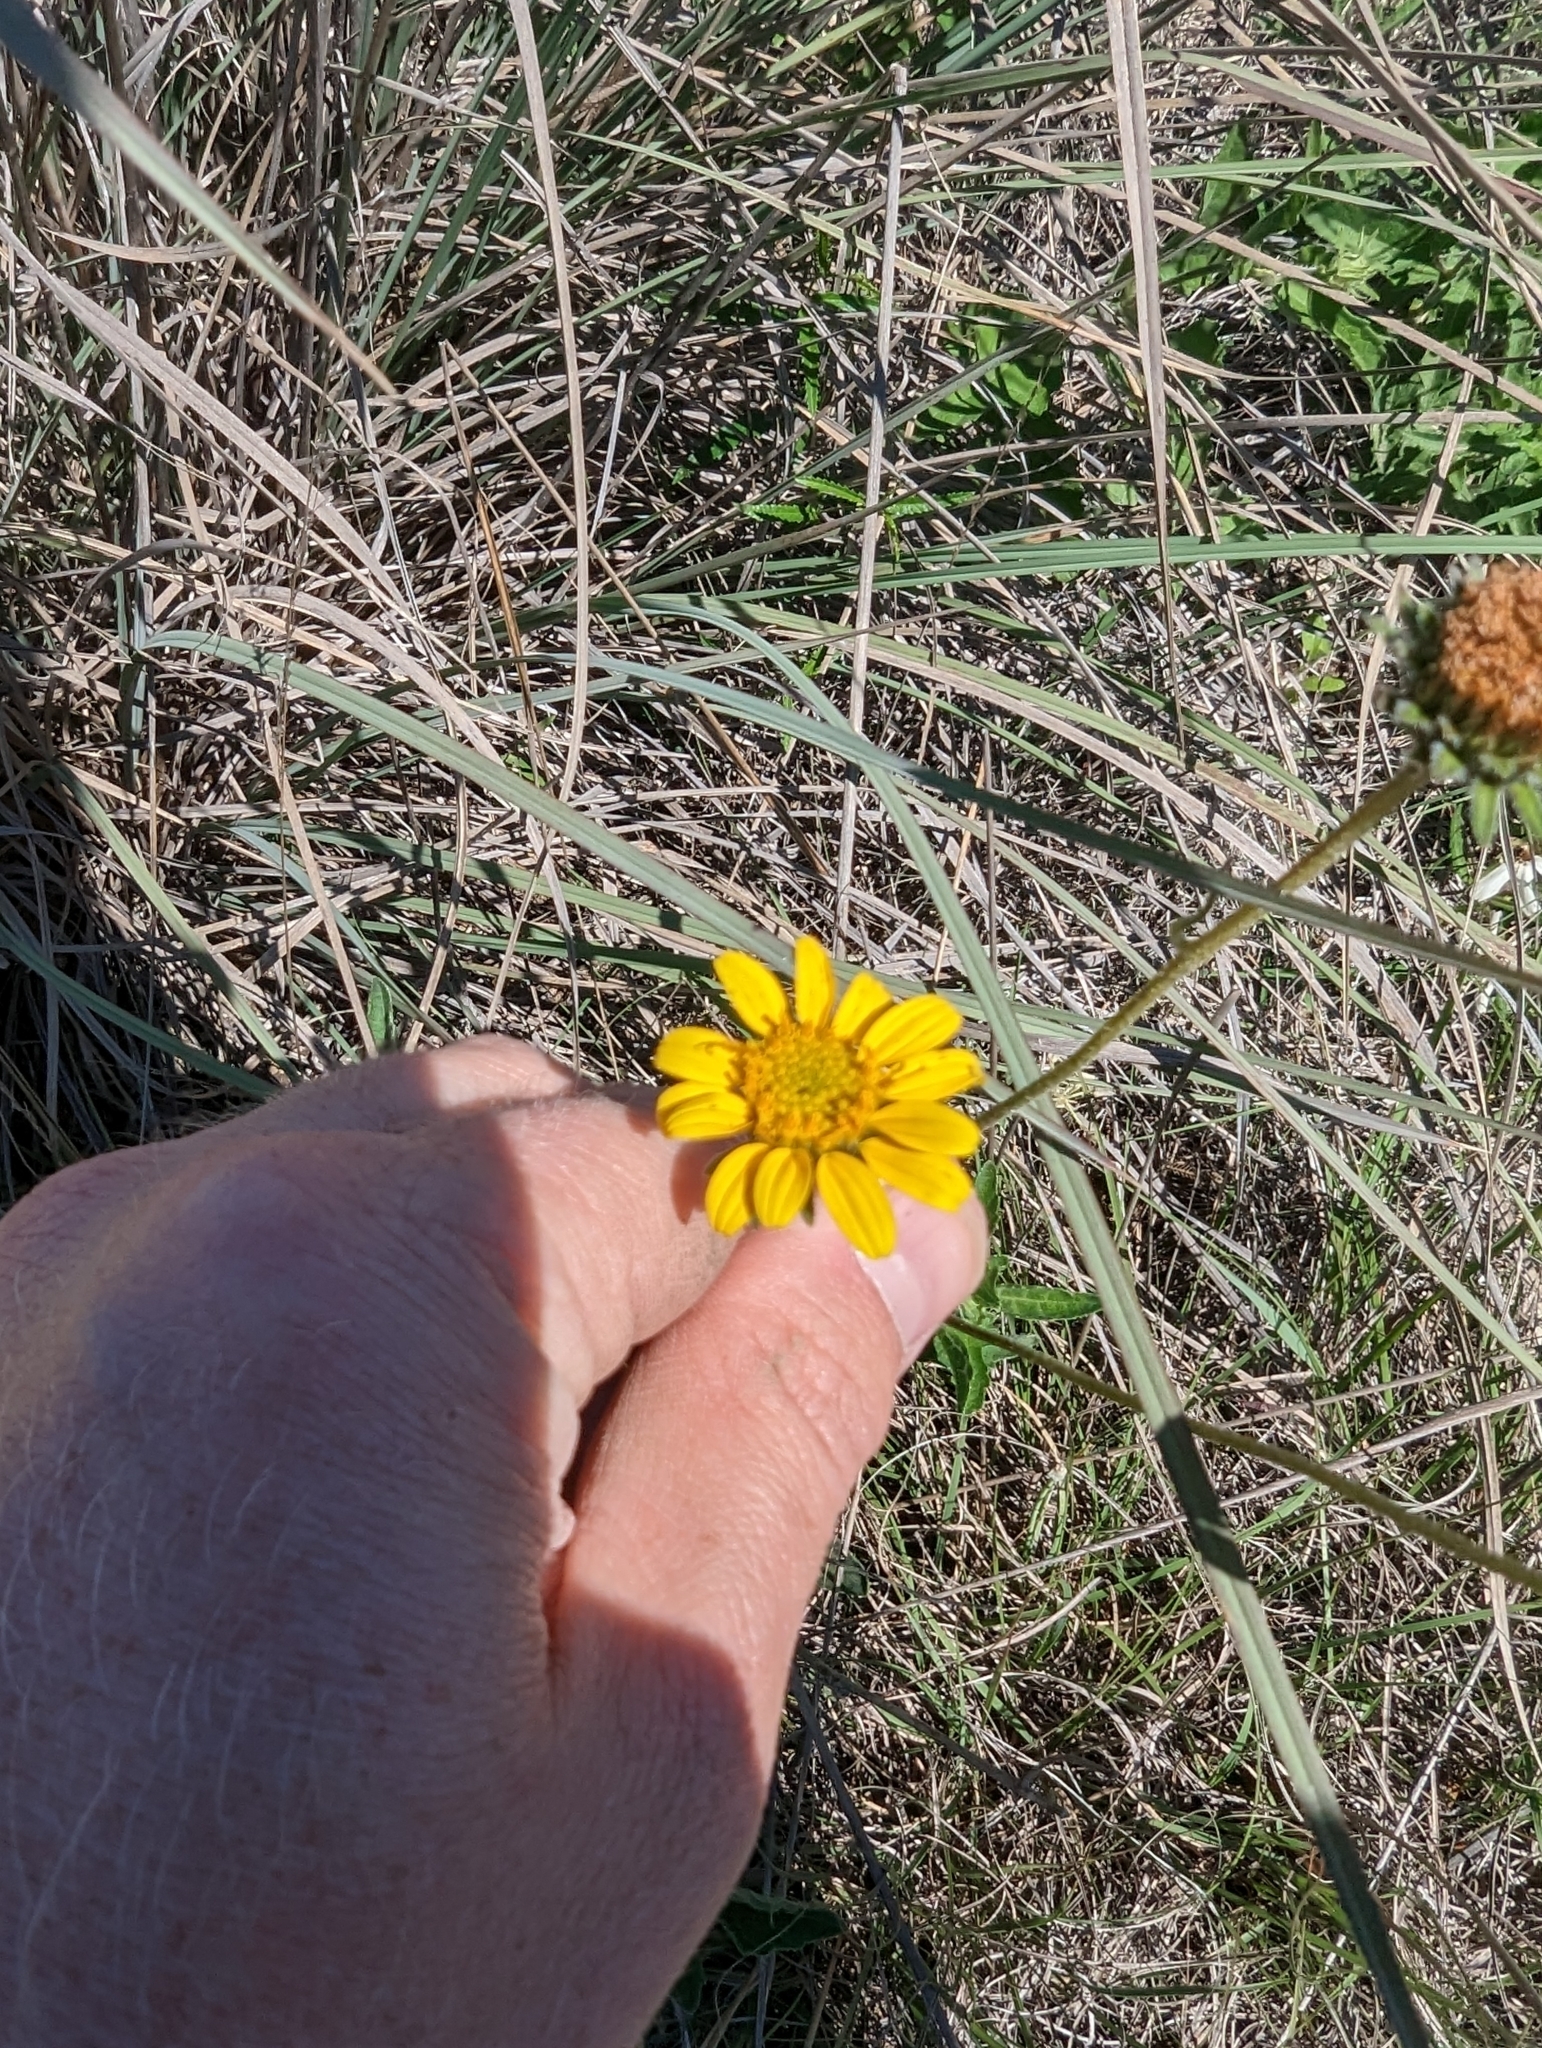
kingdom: Plantae
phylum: Tracheophyta
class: Magnoliopsida
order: Asterales
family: Asteraceae
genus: Simsia
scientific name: Simsia calva
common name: Awnless bush-sunflower
